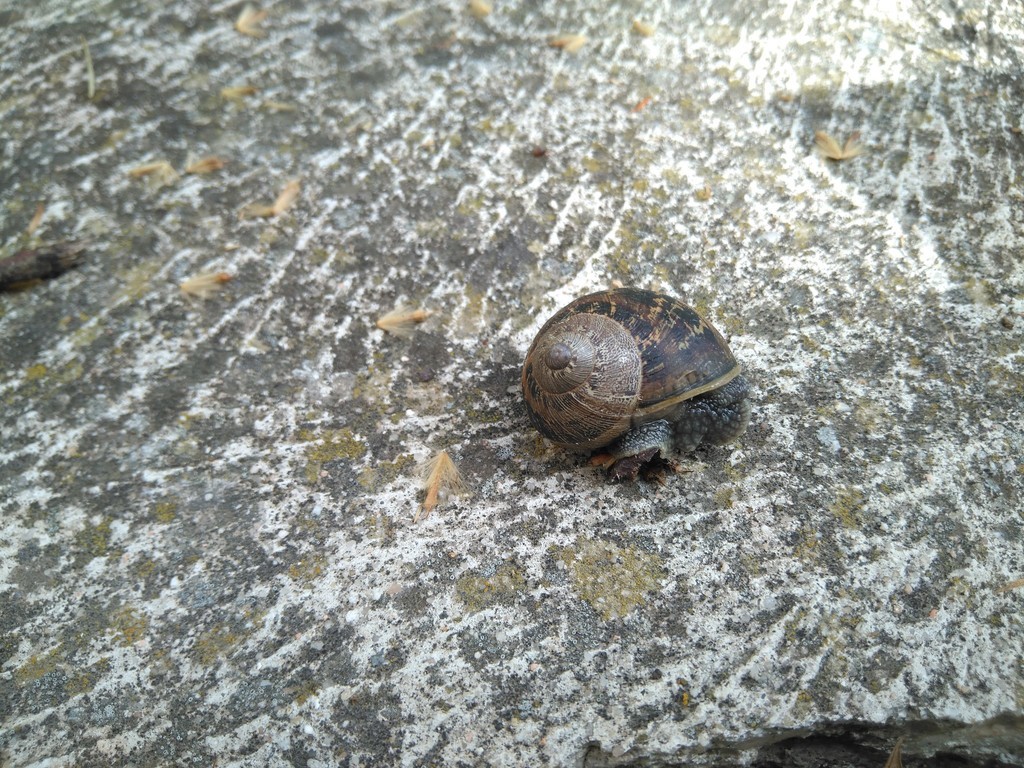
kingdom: Animalia
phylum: Mollusca
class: Gastropoda
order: Stylommatophora
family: Helicidae
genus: Cornu
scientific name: Cornu aspersum
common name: Brown garden snail
